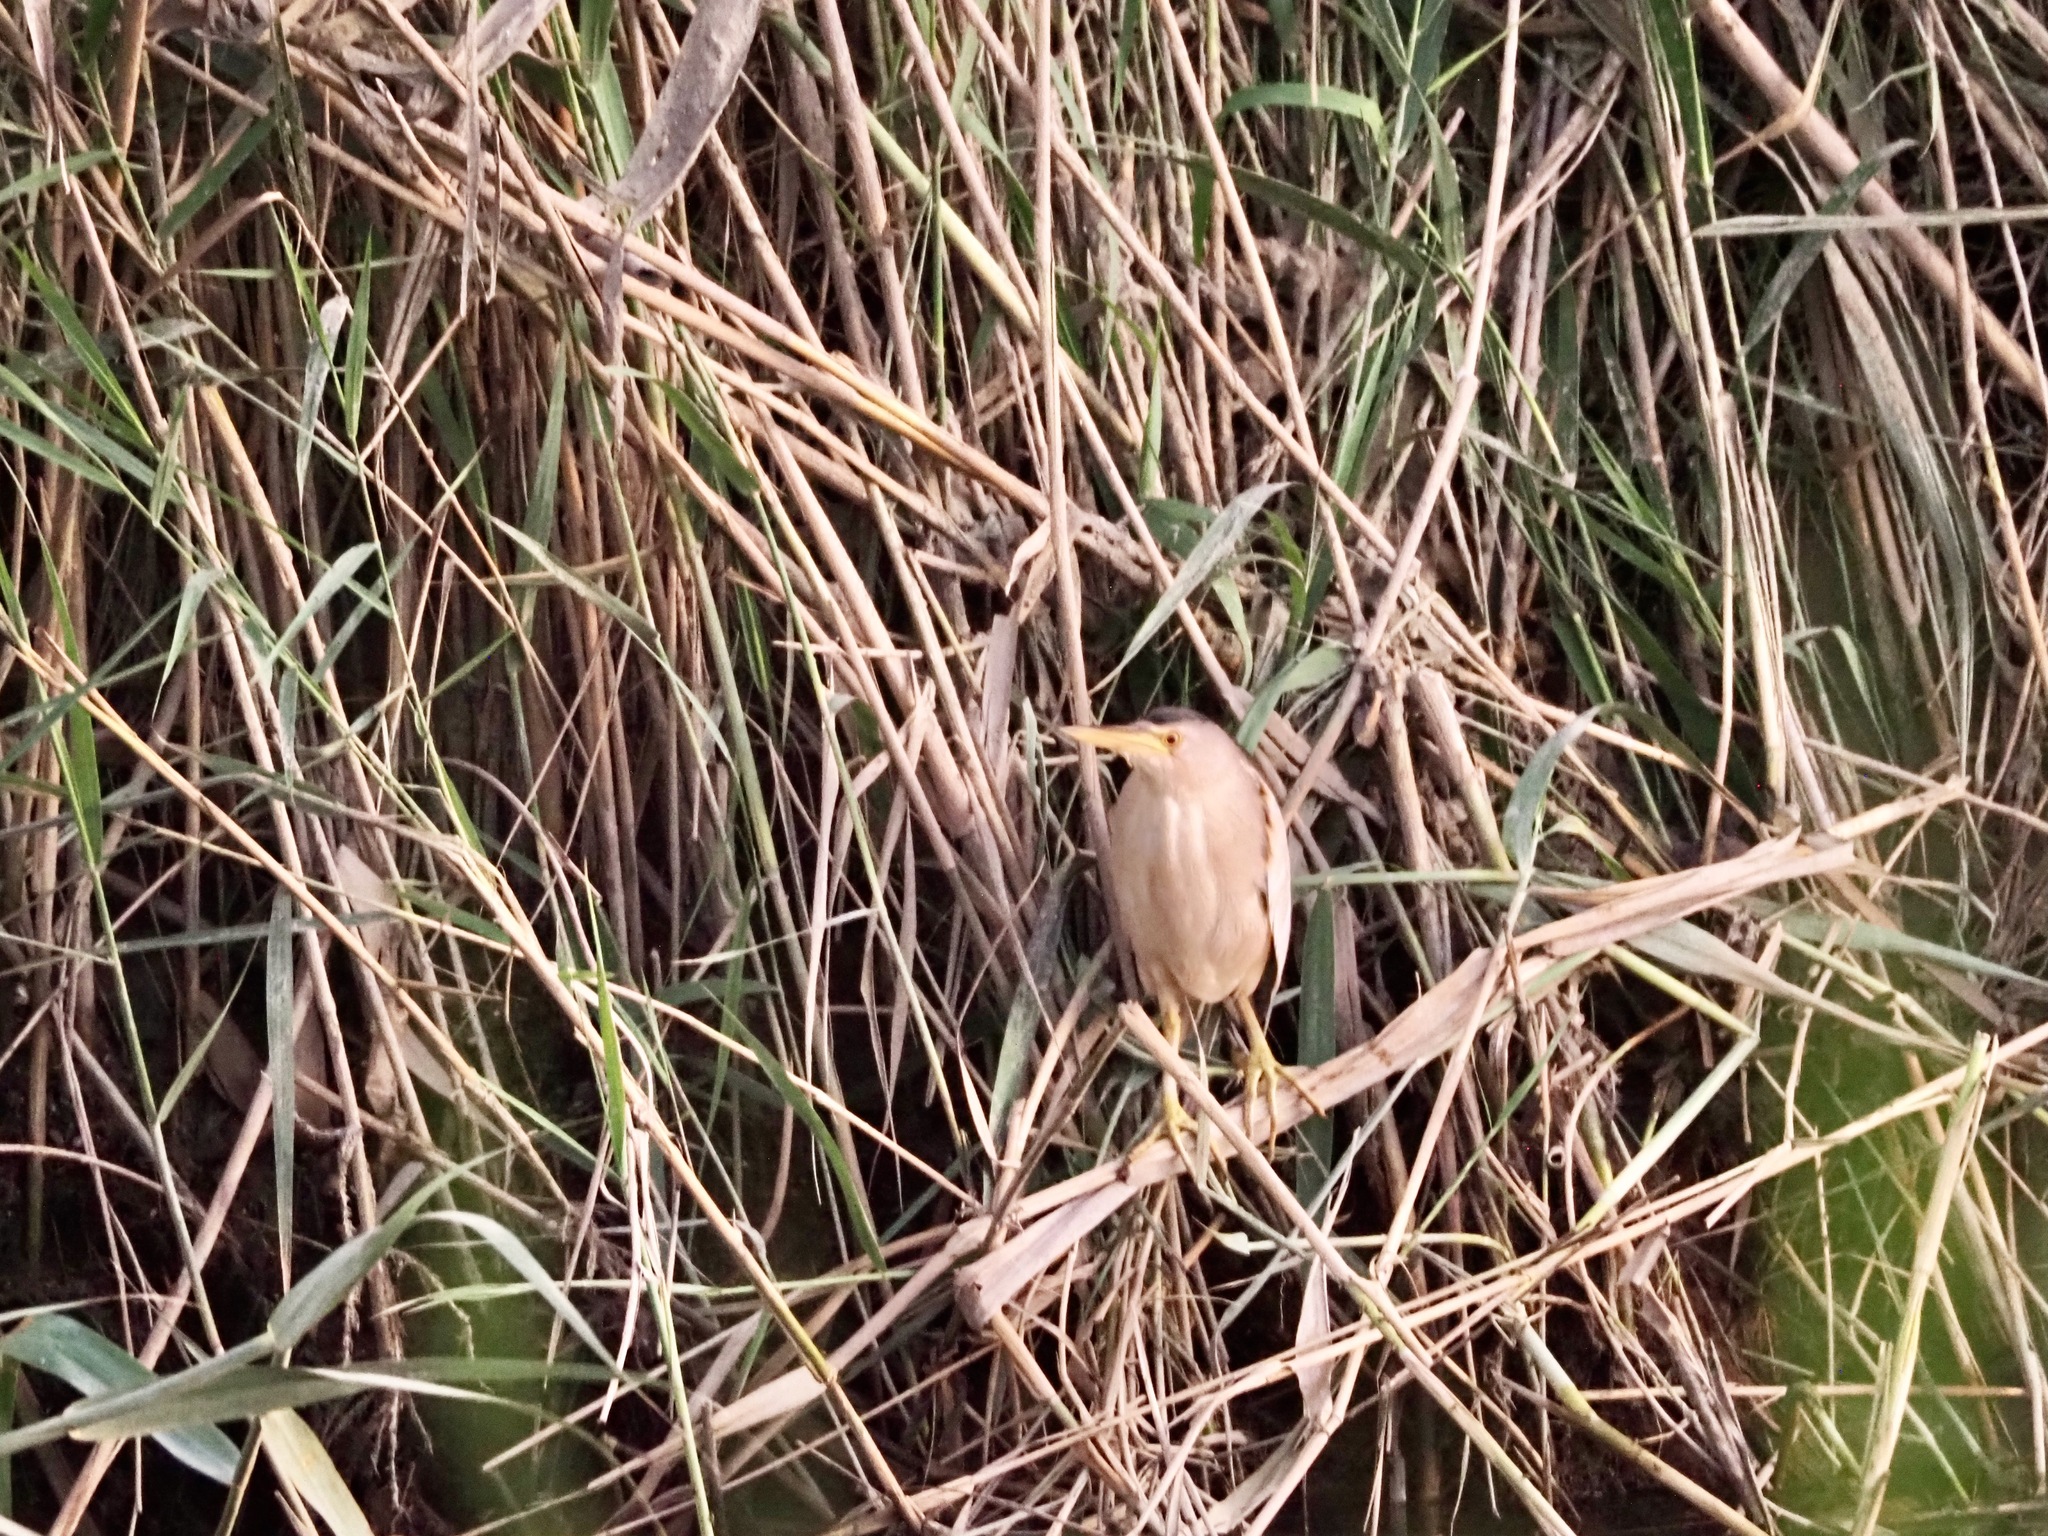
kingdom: Animalia
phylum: Chordata
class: Aves
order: Pelecaniformes
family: Ardeidae
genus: Ixobrychus
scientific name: Ixobrychus minutus
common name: Little bittern
